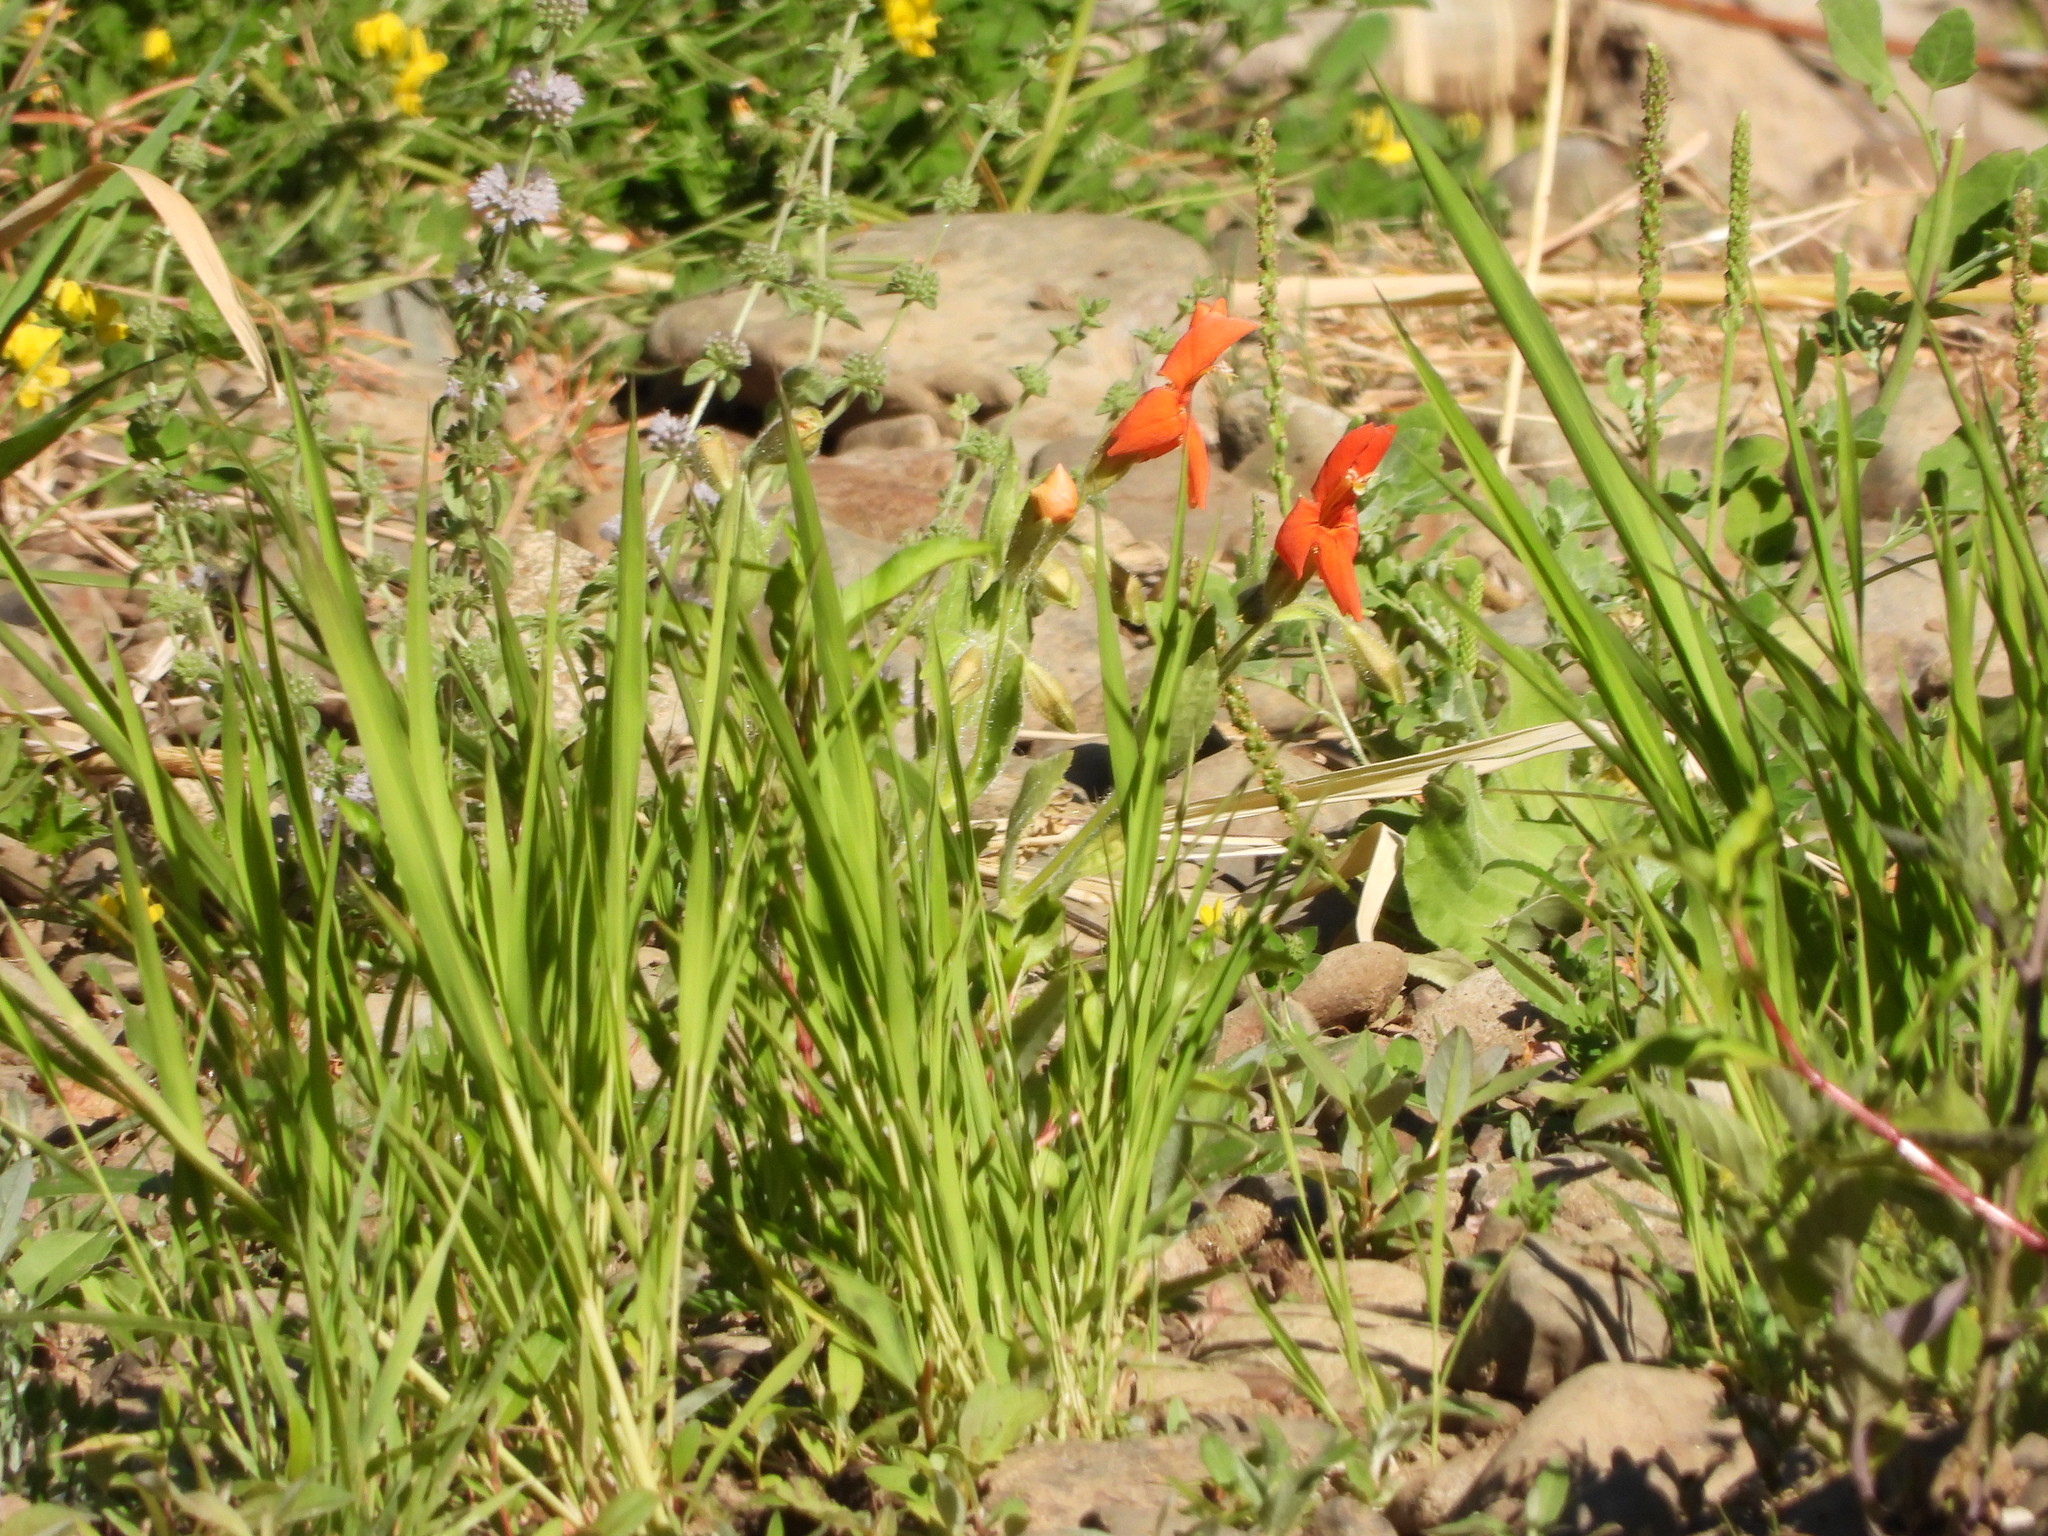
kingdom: Plantae
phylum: Tracheophyta
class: Magnoliopsida
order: Lamiales
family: Phrymaceae
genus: Erythranthe
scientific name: Erythranthe cardinalis
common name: Scarlet monkey-flower
